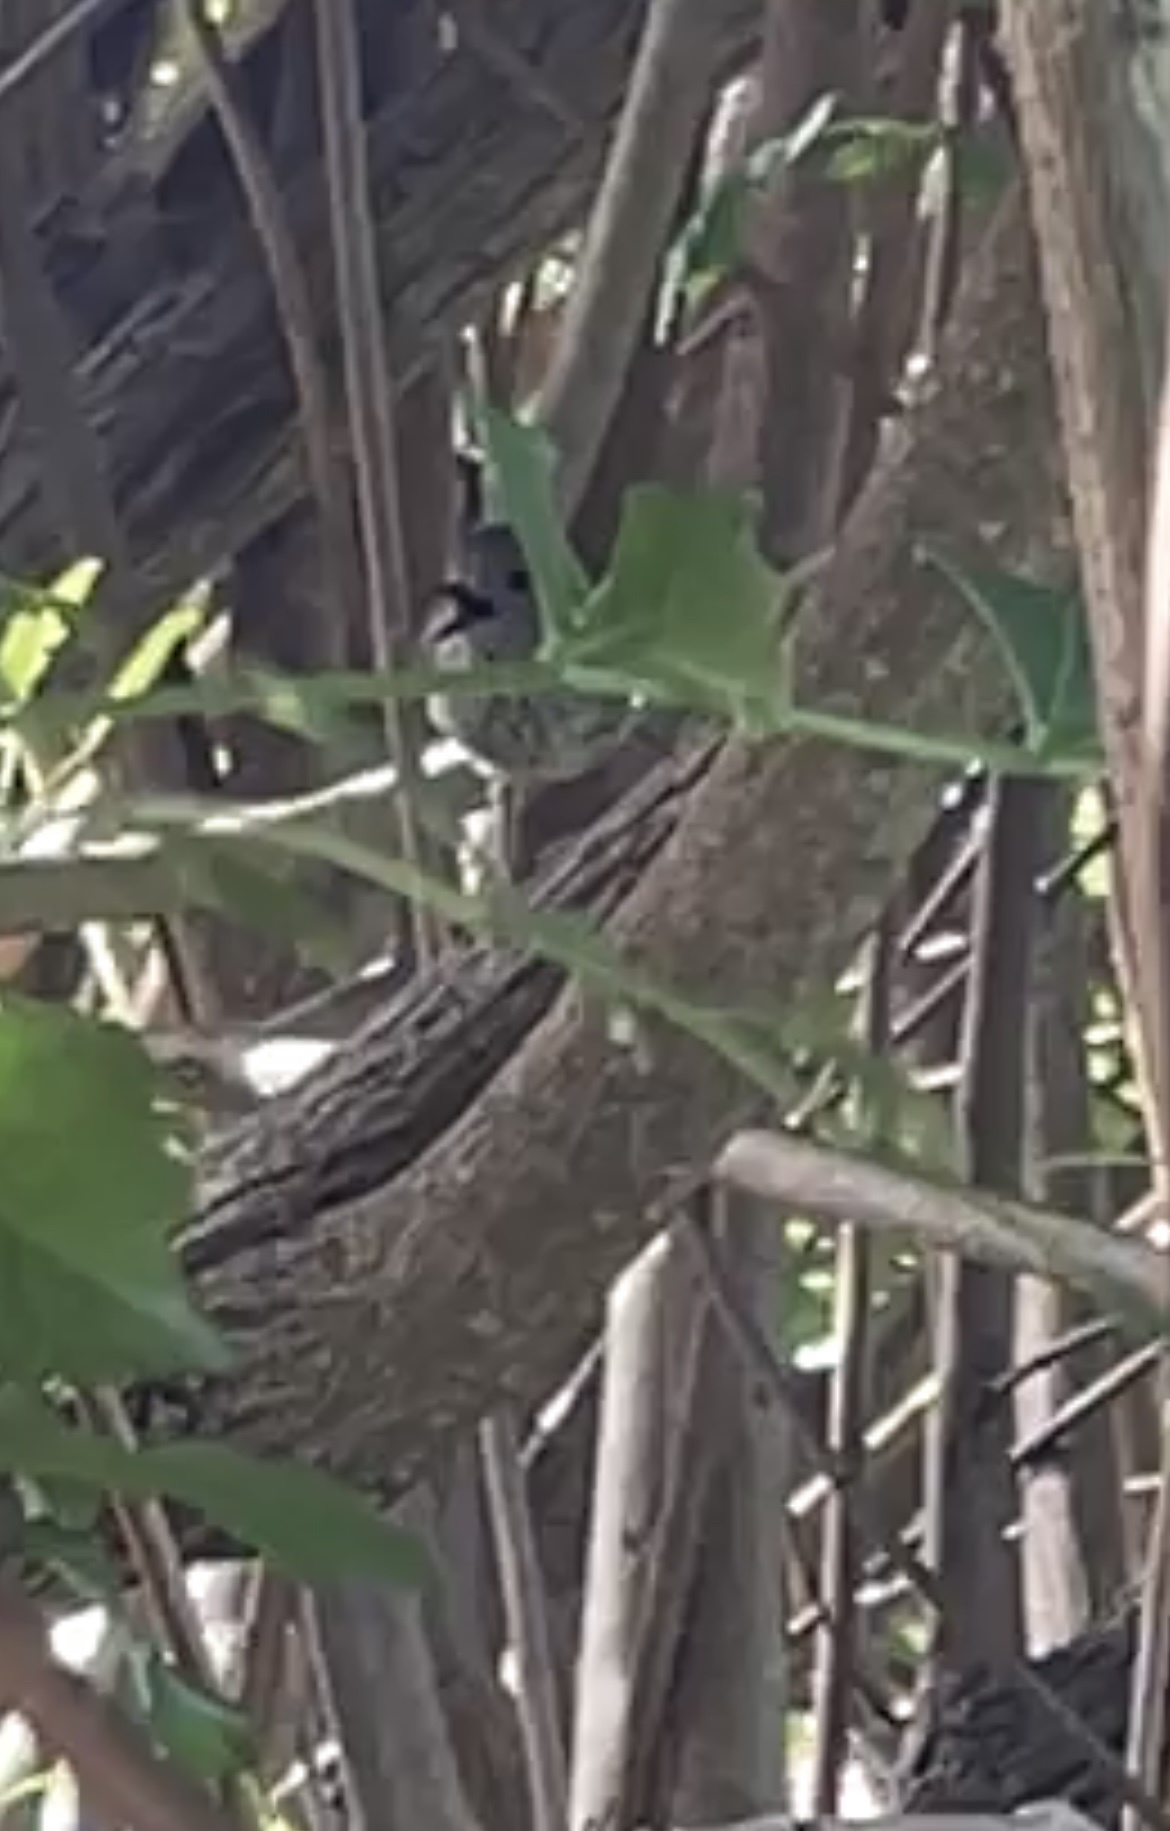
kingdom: Animalia
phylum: Chordata
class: Aves
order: Passeriformes
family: Acanthizidae
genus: Acanthiza
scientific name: Acanthiza pusilla
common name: Brown thornbill
